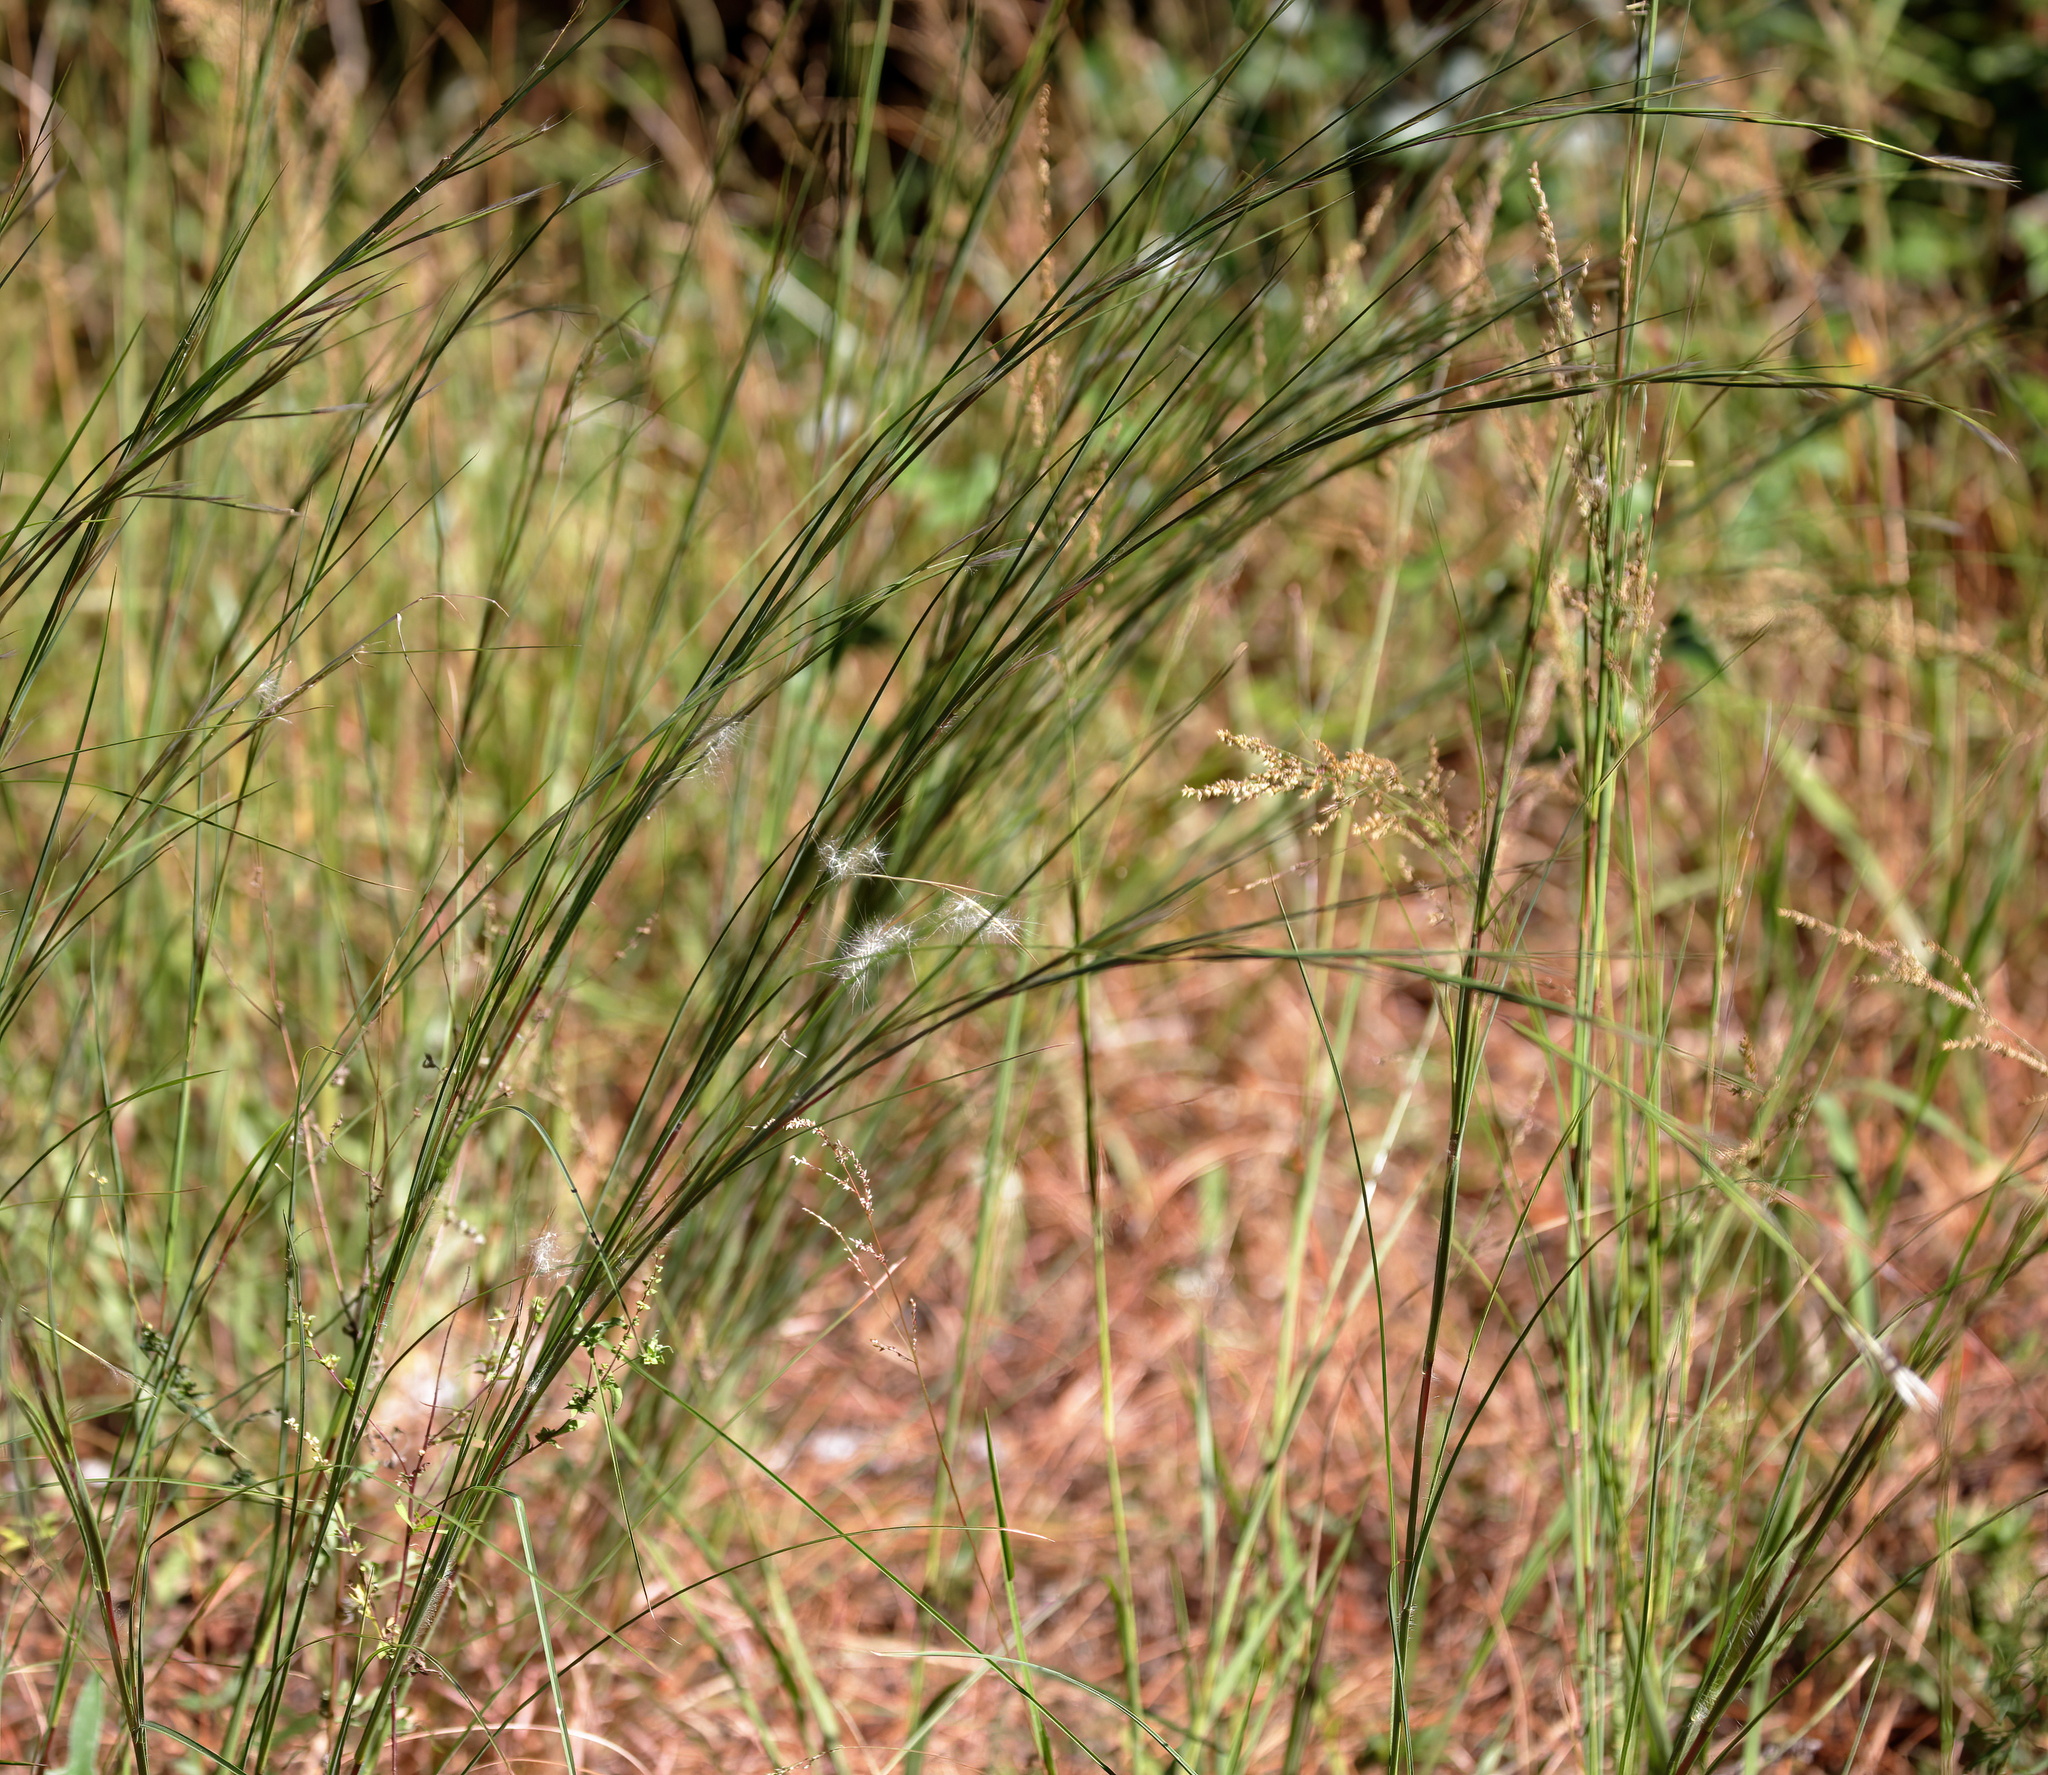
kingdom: Plantae
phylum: Tracheophyta
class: Liliopsida
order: Poales
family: Poaceae
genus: Andropogon
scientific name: Andropogon ternarius
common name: Split bluestem
